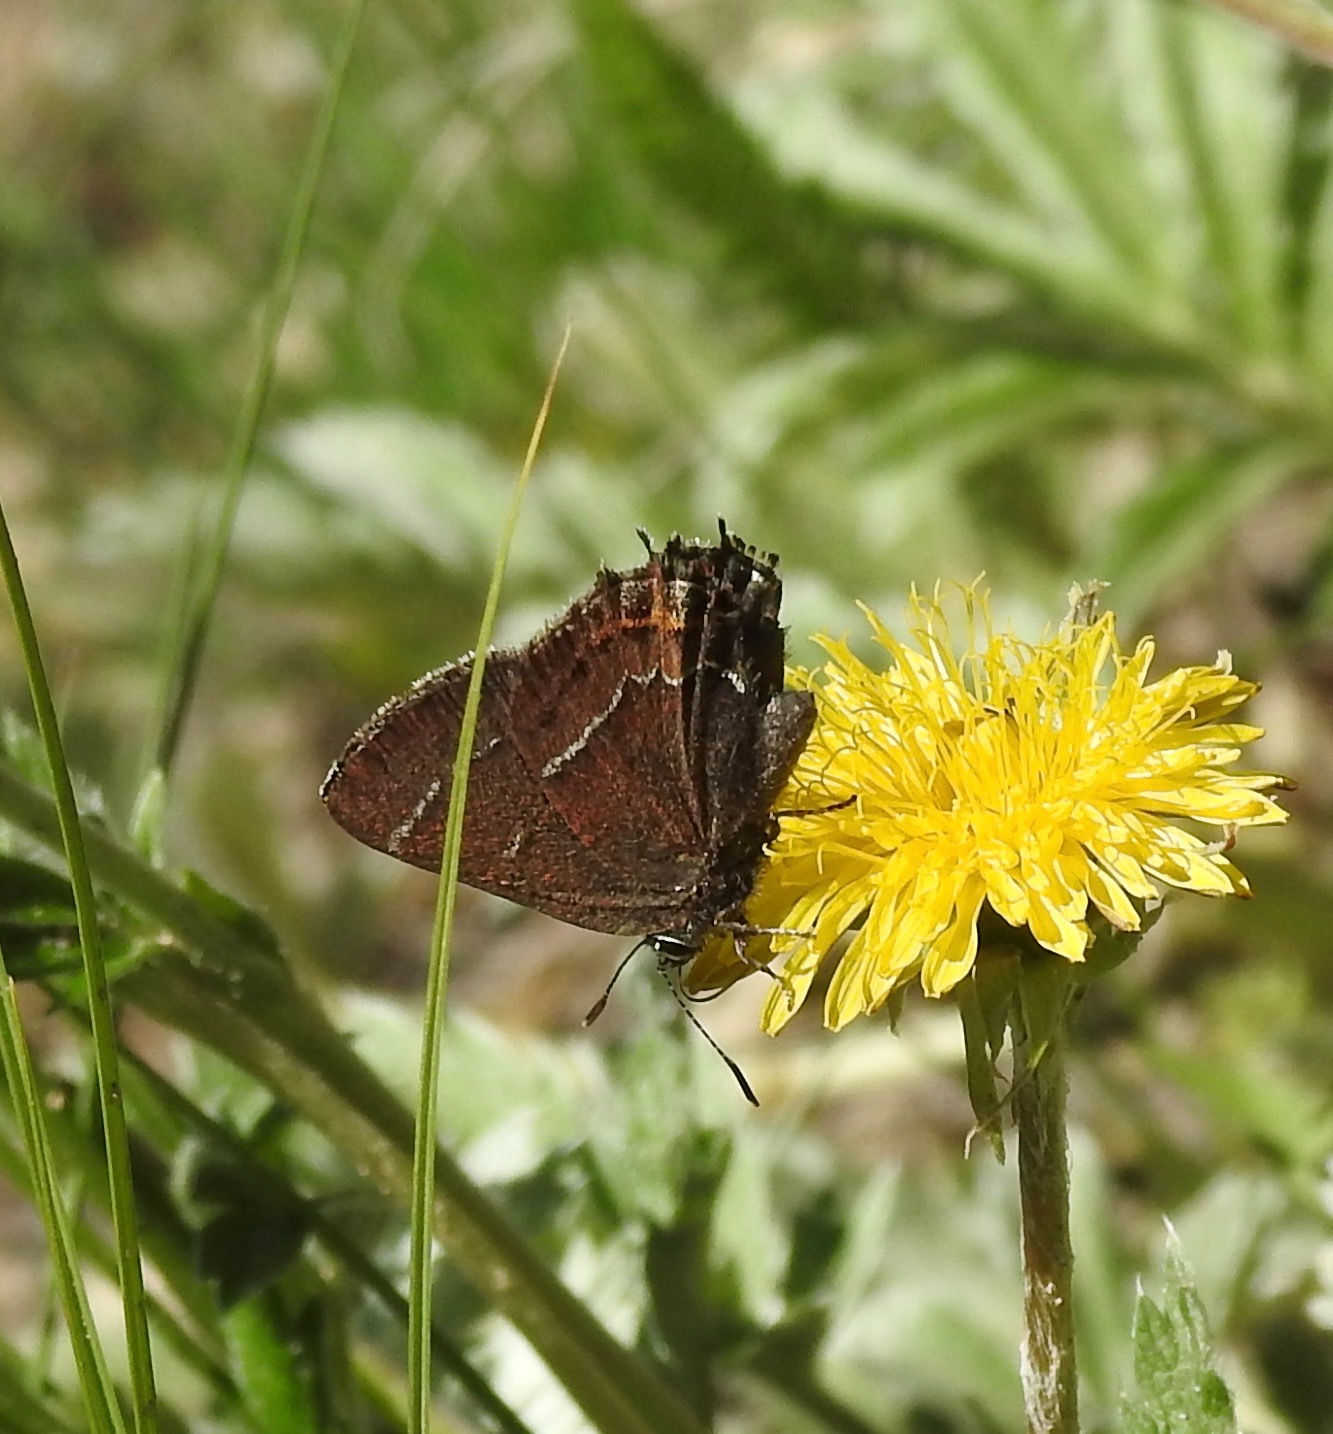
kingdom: Animalia
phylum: Arthropoda
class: Insecta
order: Lepidoptera
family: Lycaenidae
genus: Mitoura
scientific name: Mitoura spinetorum
